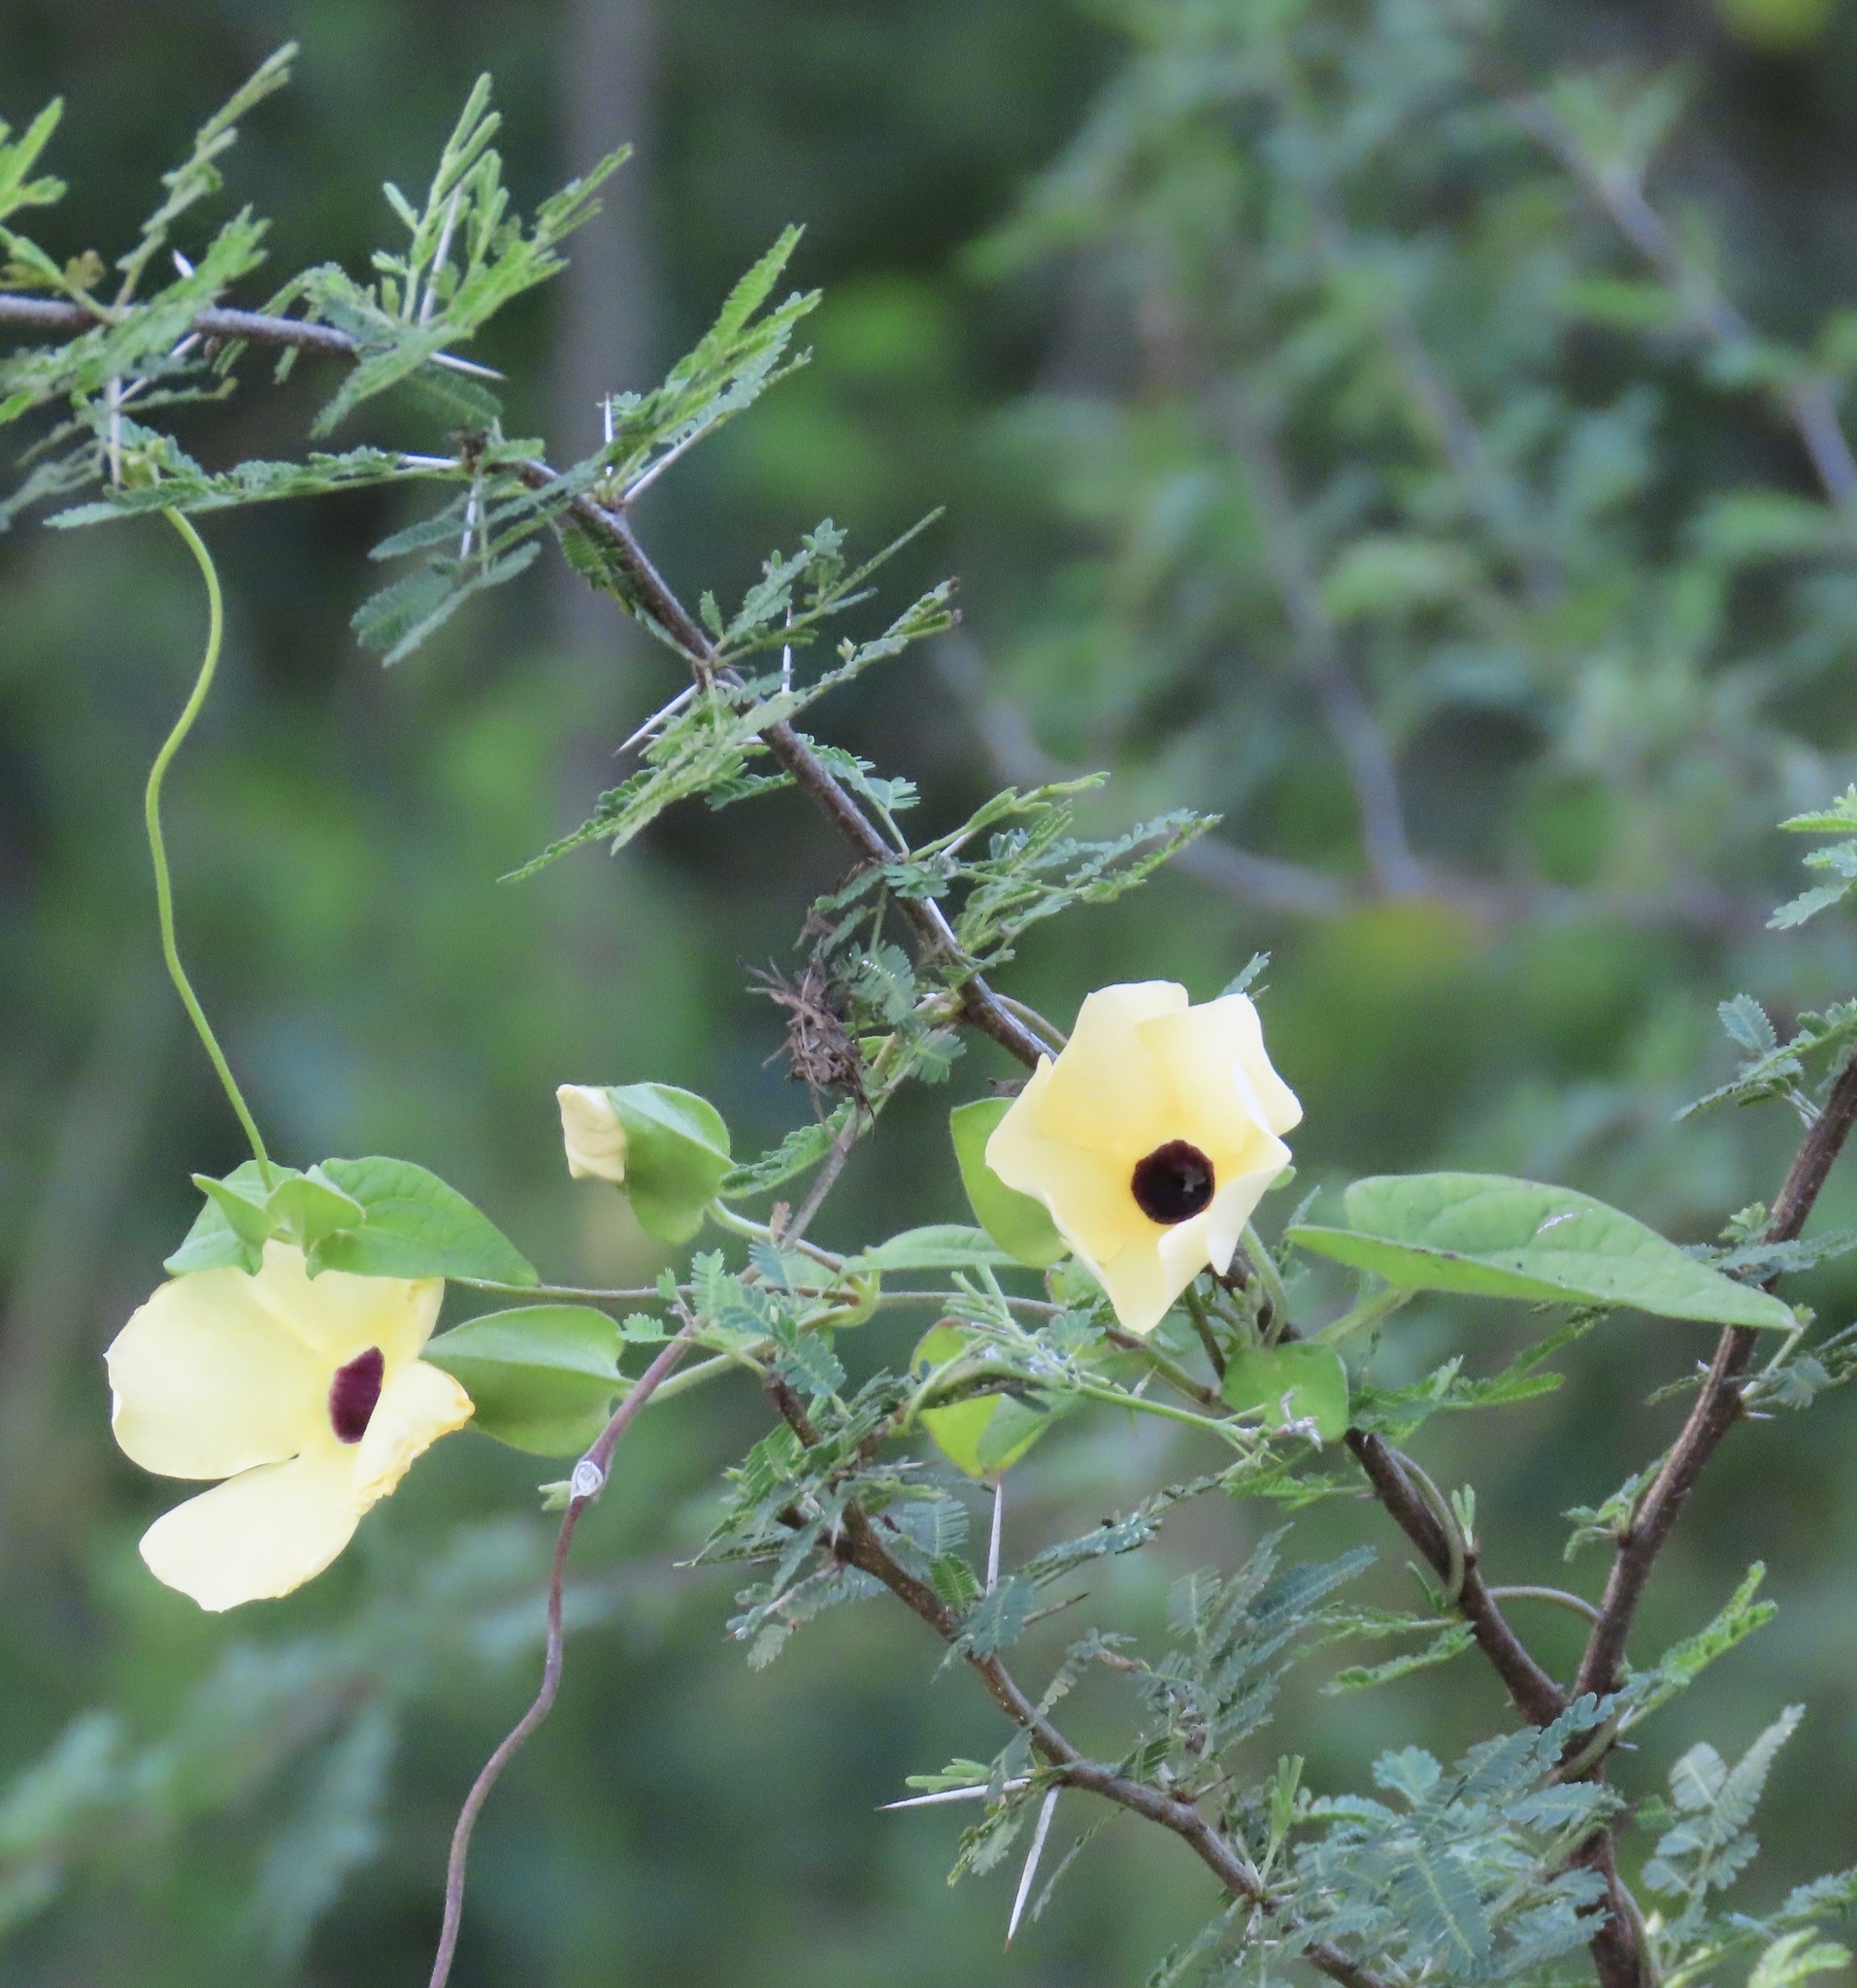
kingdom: Plantae
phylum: Tracheophyta
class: Magnoliopsida
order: Lamiales
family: Acanthaceae
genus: Thunbergia
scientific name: Thunbergia alata
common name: Blackeyed susan vine
